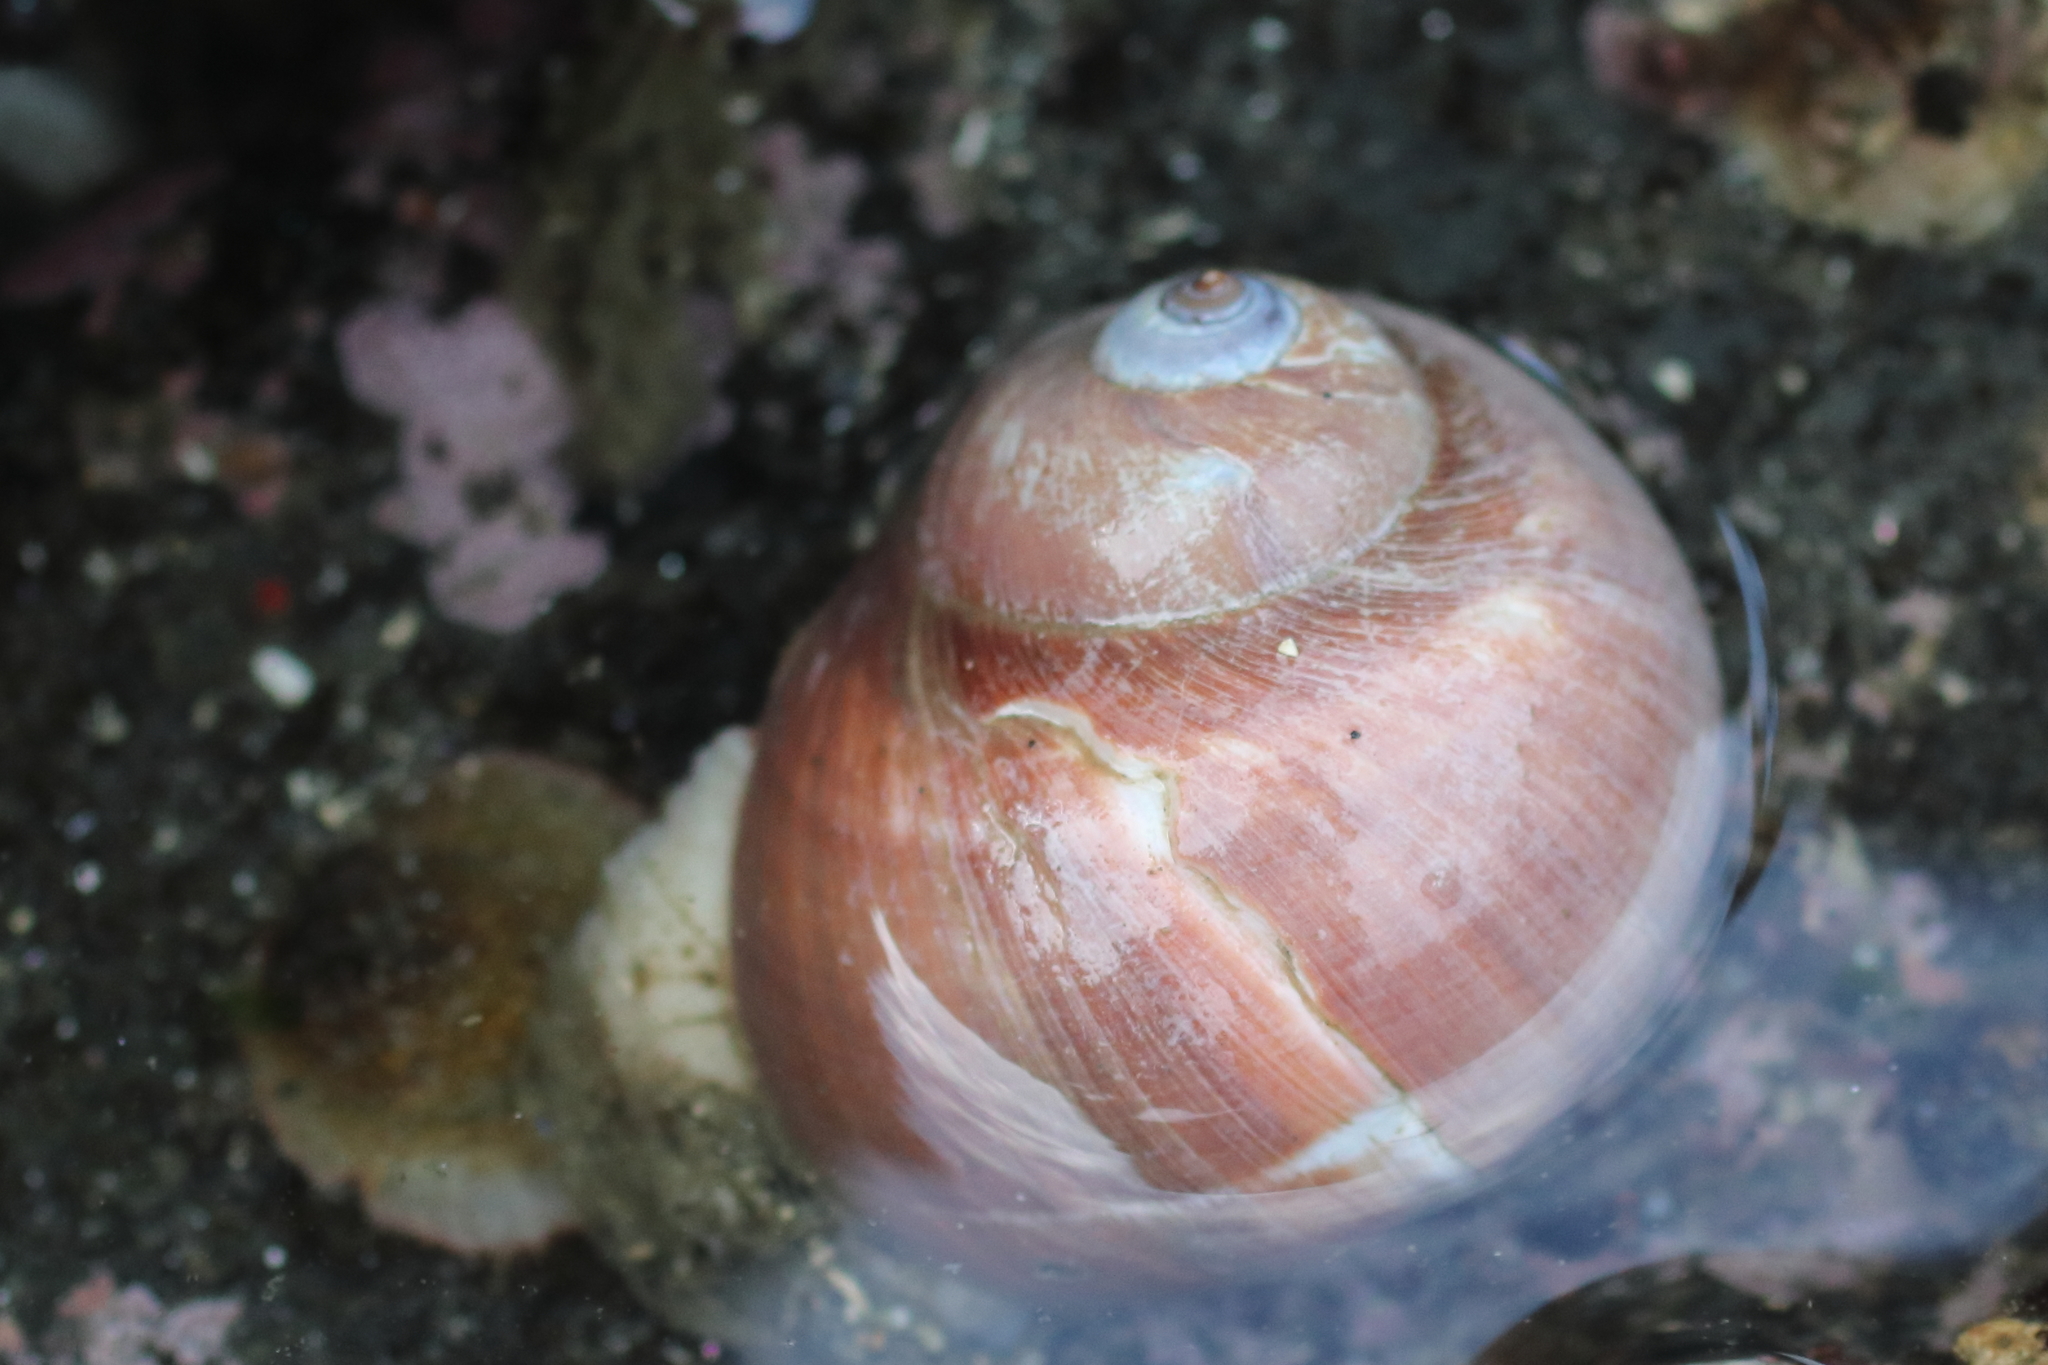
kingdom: Animalia
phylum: Mollusca
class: Gastropoda
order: Littorinimorpha
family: Naticidae
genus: Cryptonatica
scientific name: Cryptonatica aleutica
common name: Aleutian moon snail
